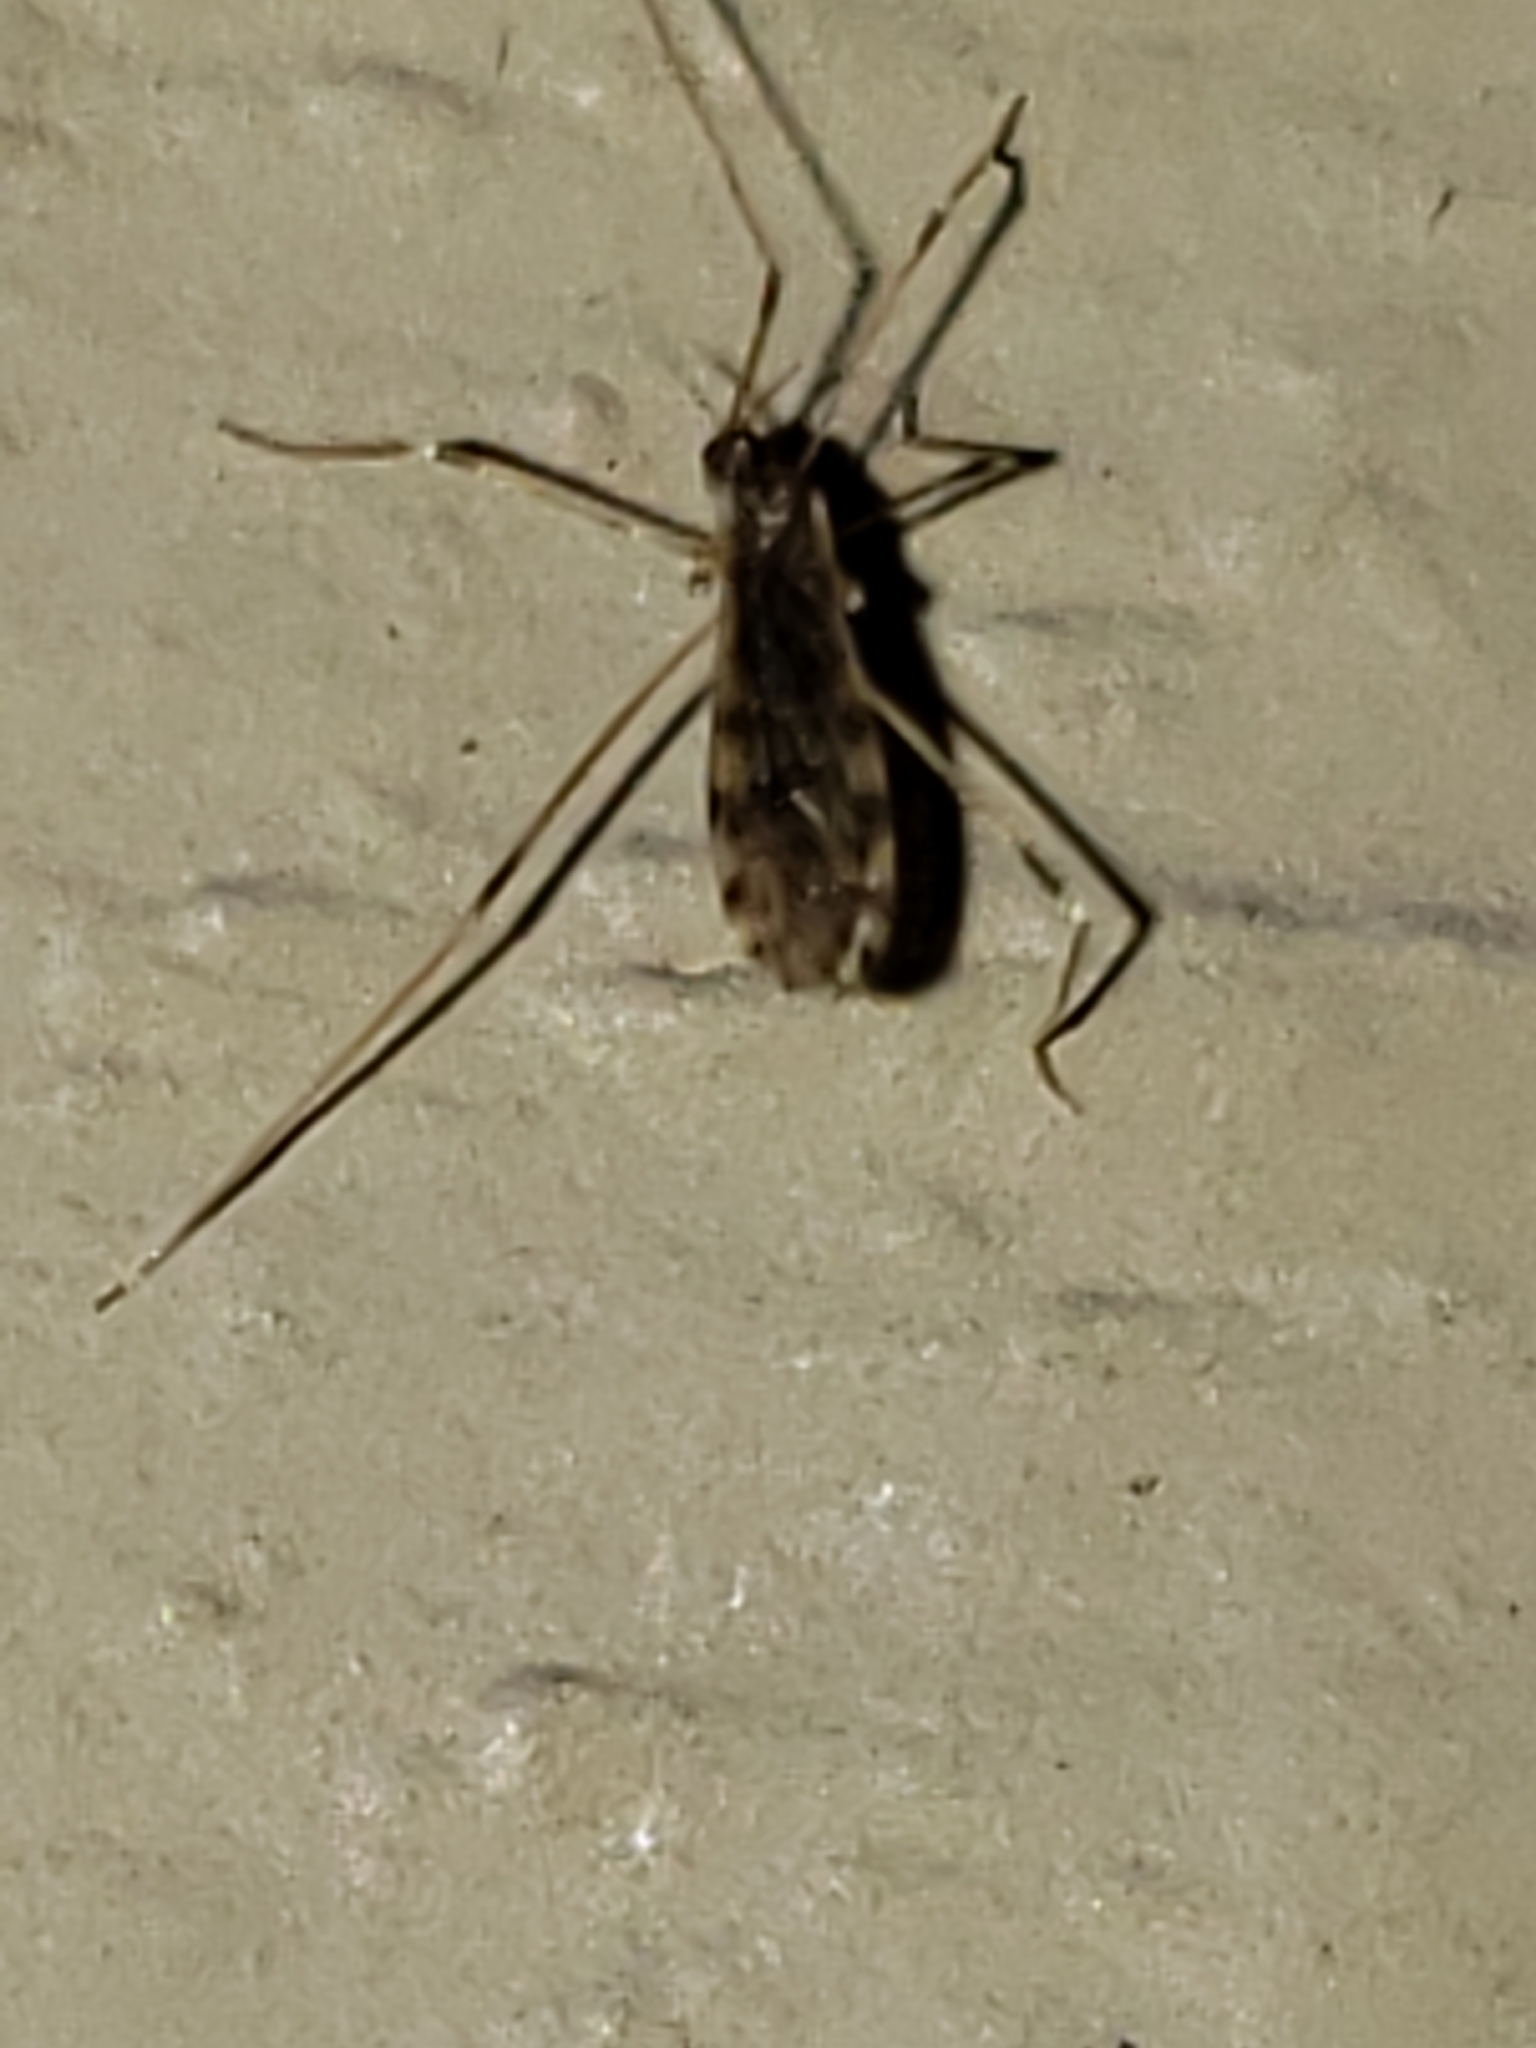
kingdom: Animalia
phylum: Arthropoda
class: Insecta
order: Diptera
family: Limoniidae
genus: Erioptera
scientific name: Erioptera parva
